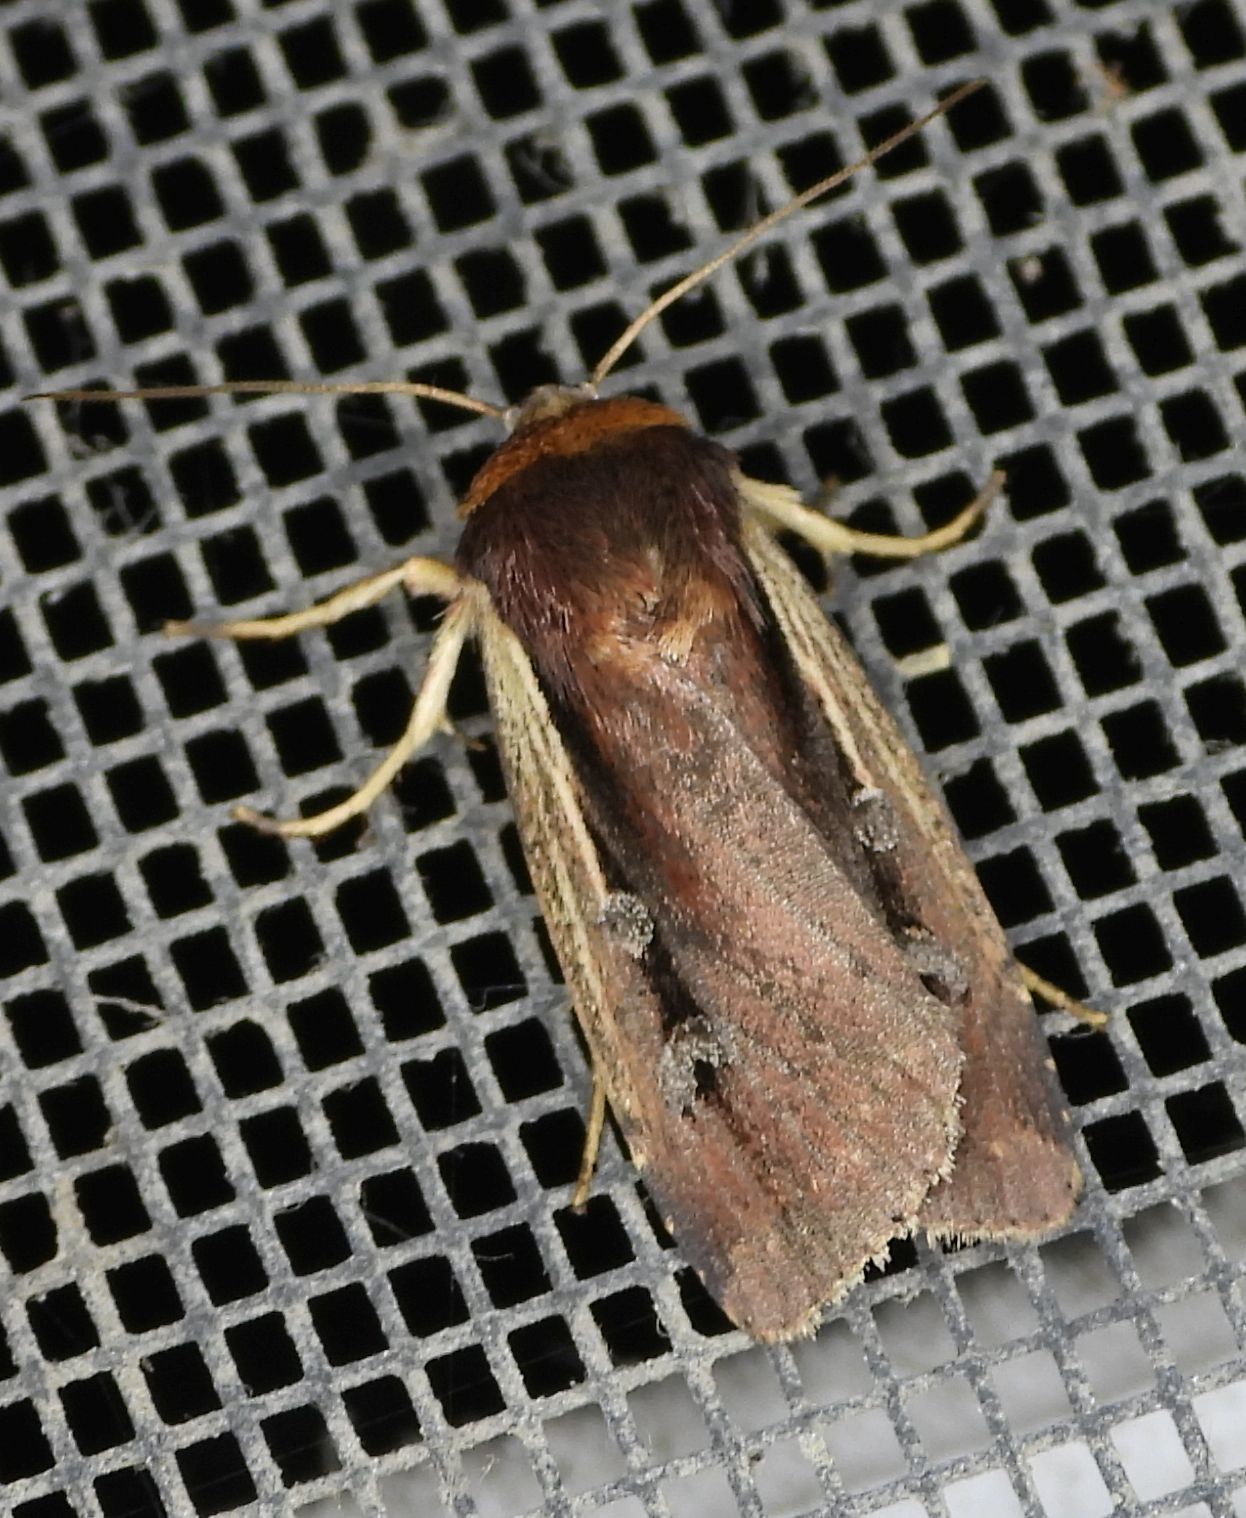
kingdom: Animalia
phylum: Arthropoda
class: Insecta
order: Lepidoptera
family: Noctuidae
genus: Ochropleura
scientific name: Ochropleura implecta
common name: Flame-shouldered dart
